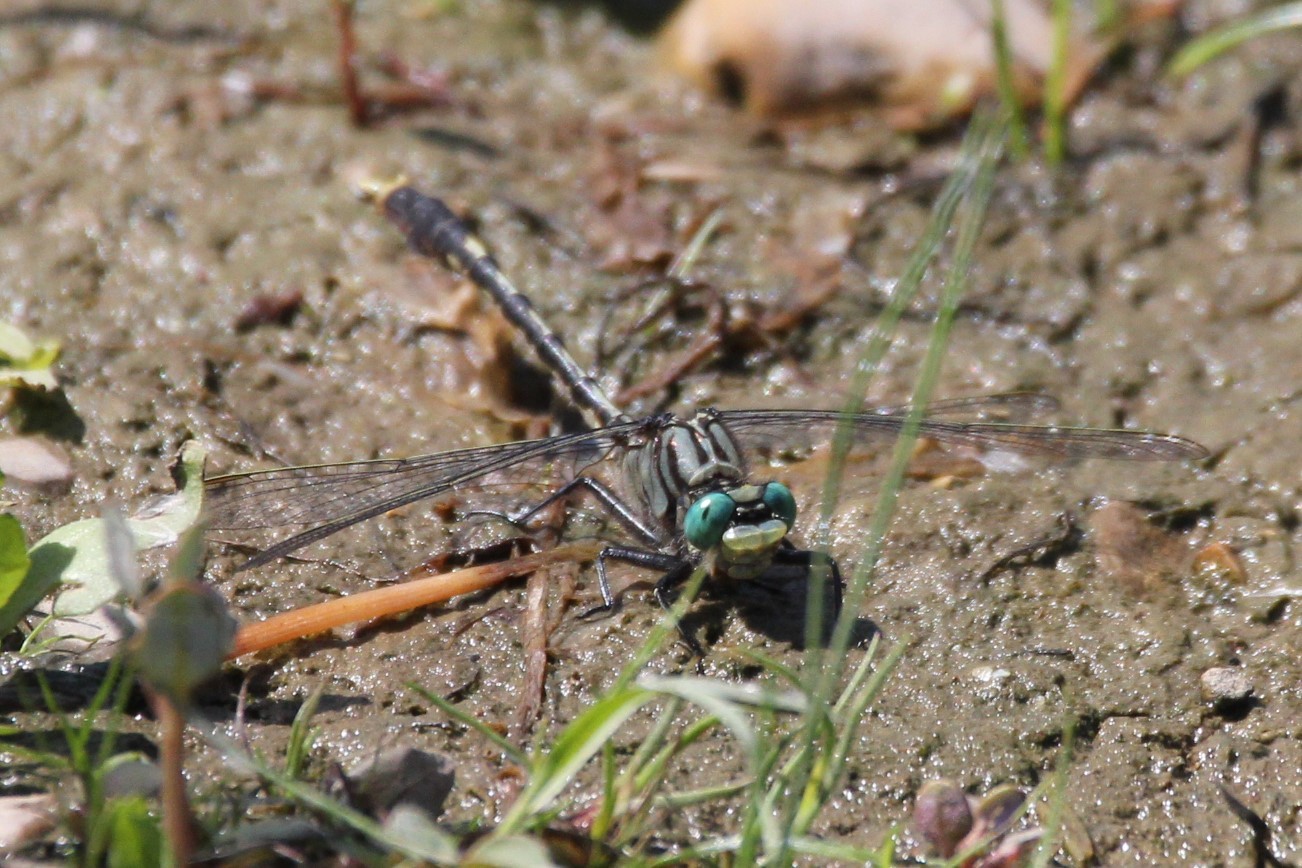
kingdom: Animalia
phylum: Arthropoda
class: Insecta
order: Odonata
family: Gomphidae
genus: Arigomphus
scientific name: Arigomphus villosipes
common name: Unicorn clubtail
